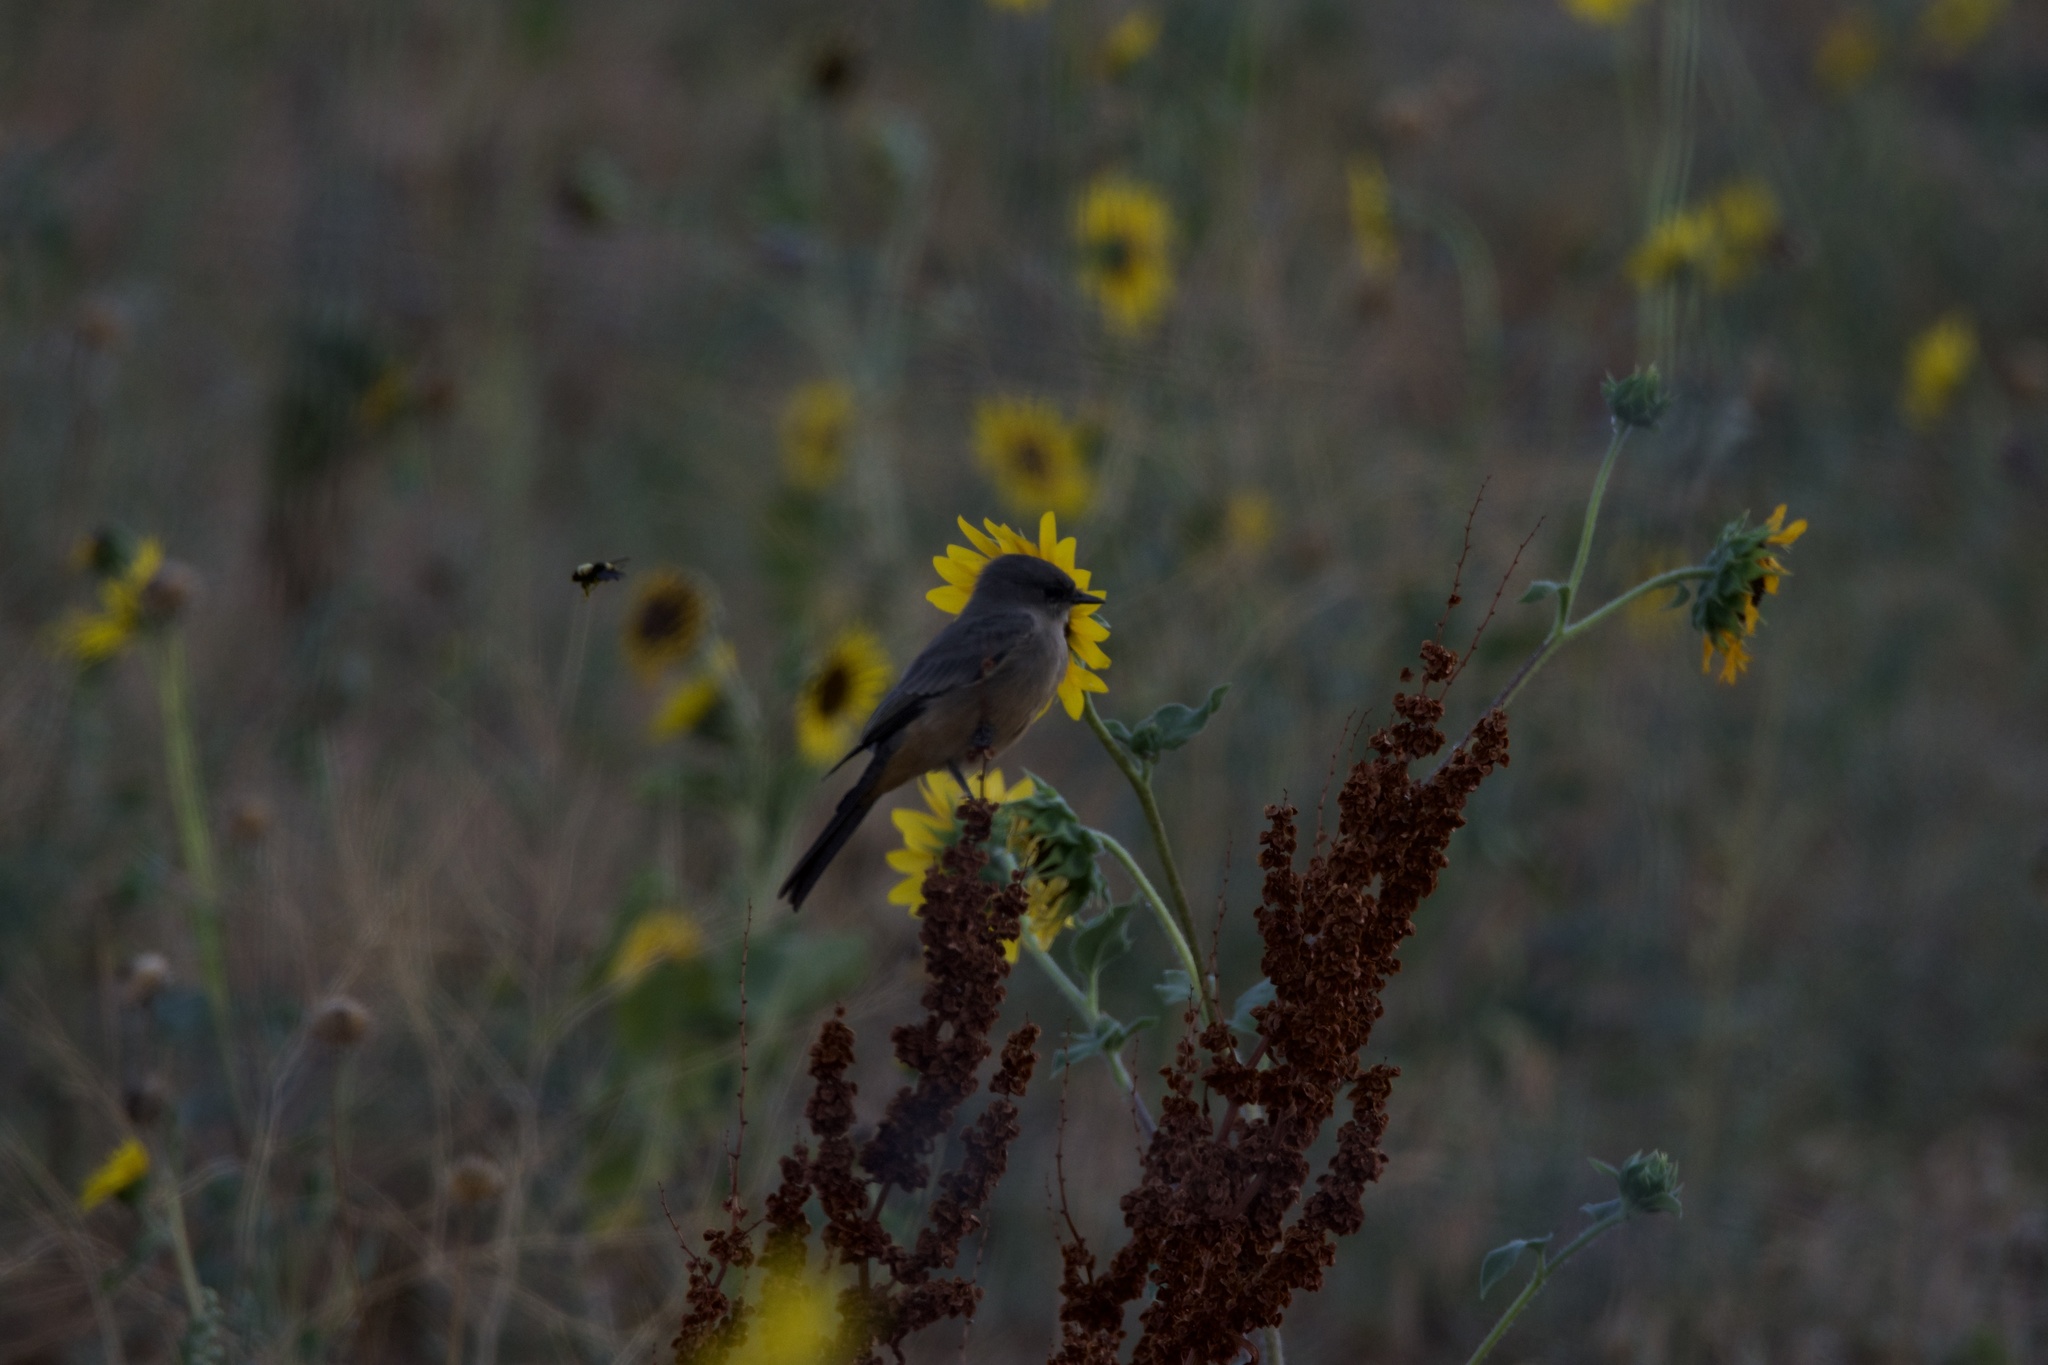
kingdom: Animalia
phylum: Chordata
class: Aves
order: Passeriformes
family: Tyrannidae
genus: Sayornis
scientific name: Sayornis saya
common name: Say's phoebe
